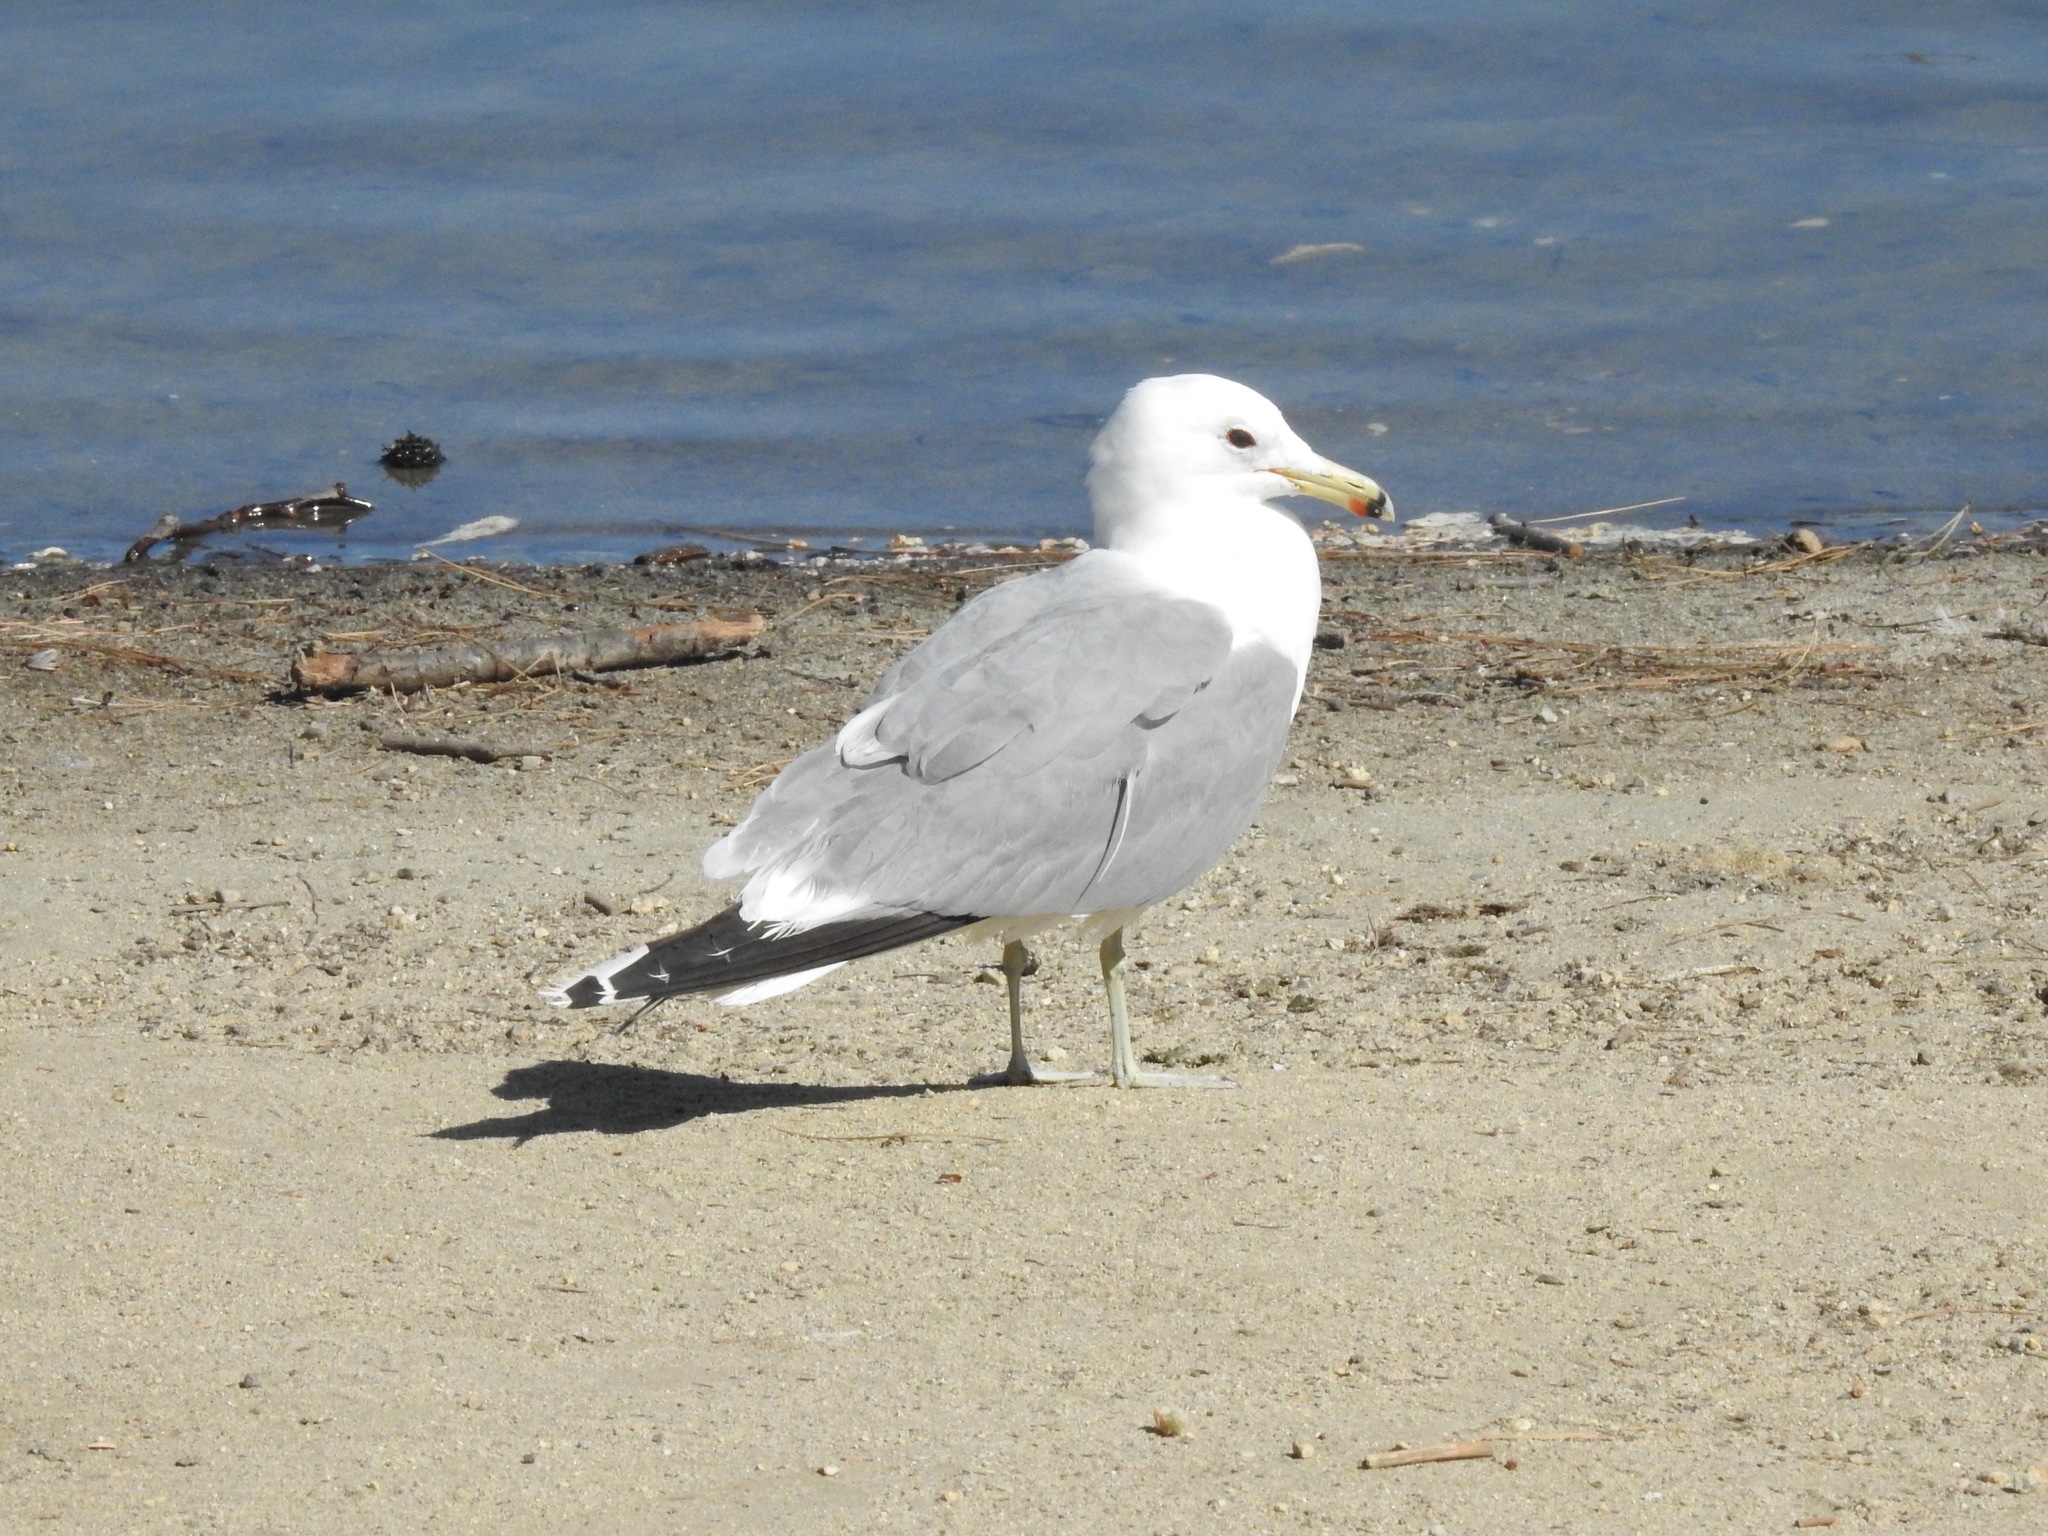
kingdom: Animalia
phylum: Chordata
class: Aves
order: Charadriiformes
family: Laridae
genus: Larus
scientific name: Larus californicus
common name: California gull
